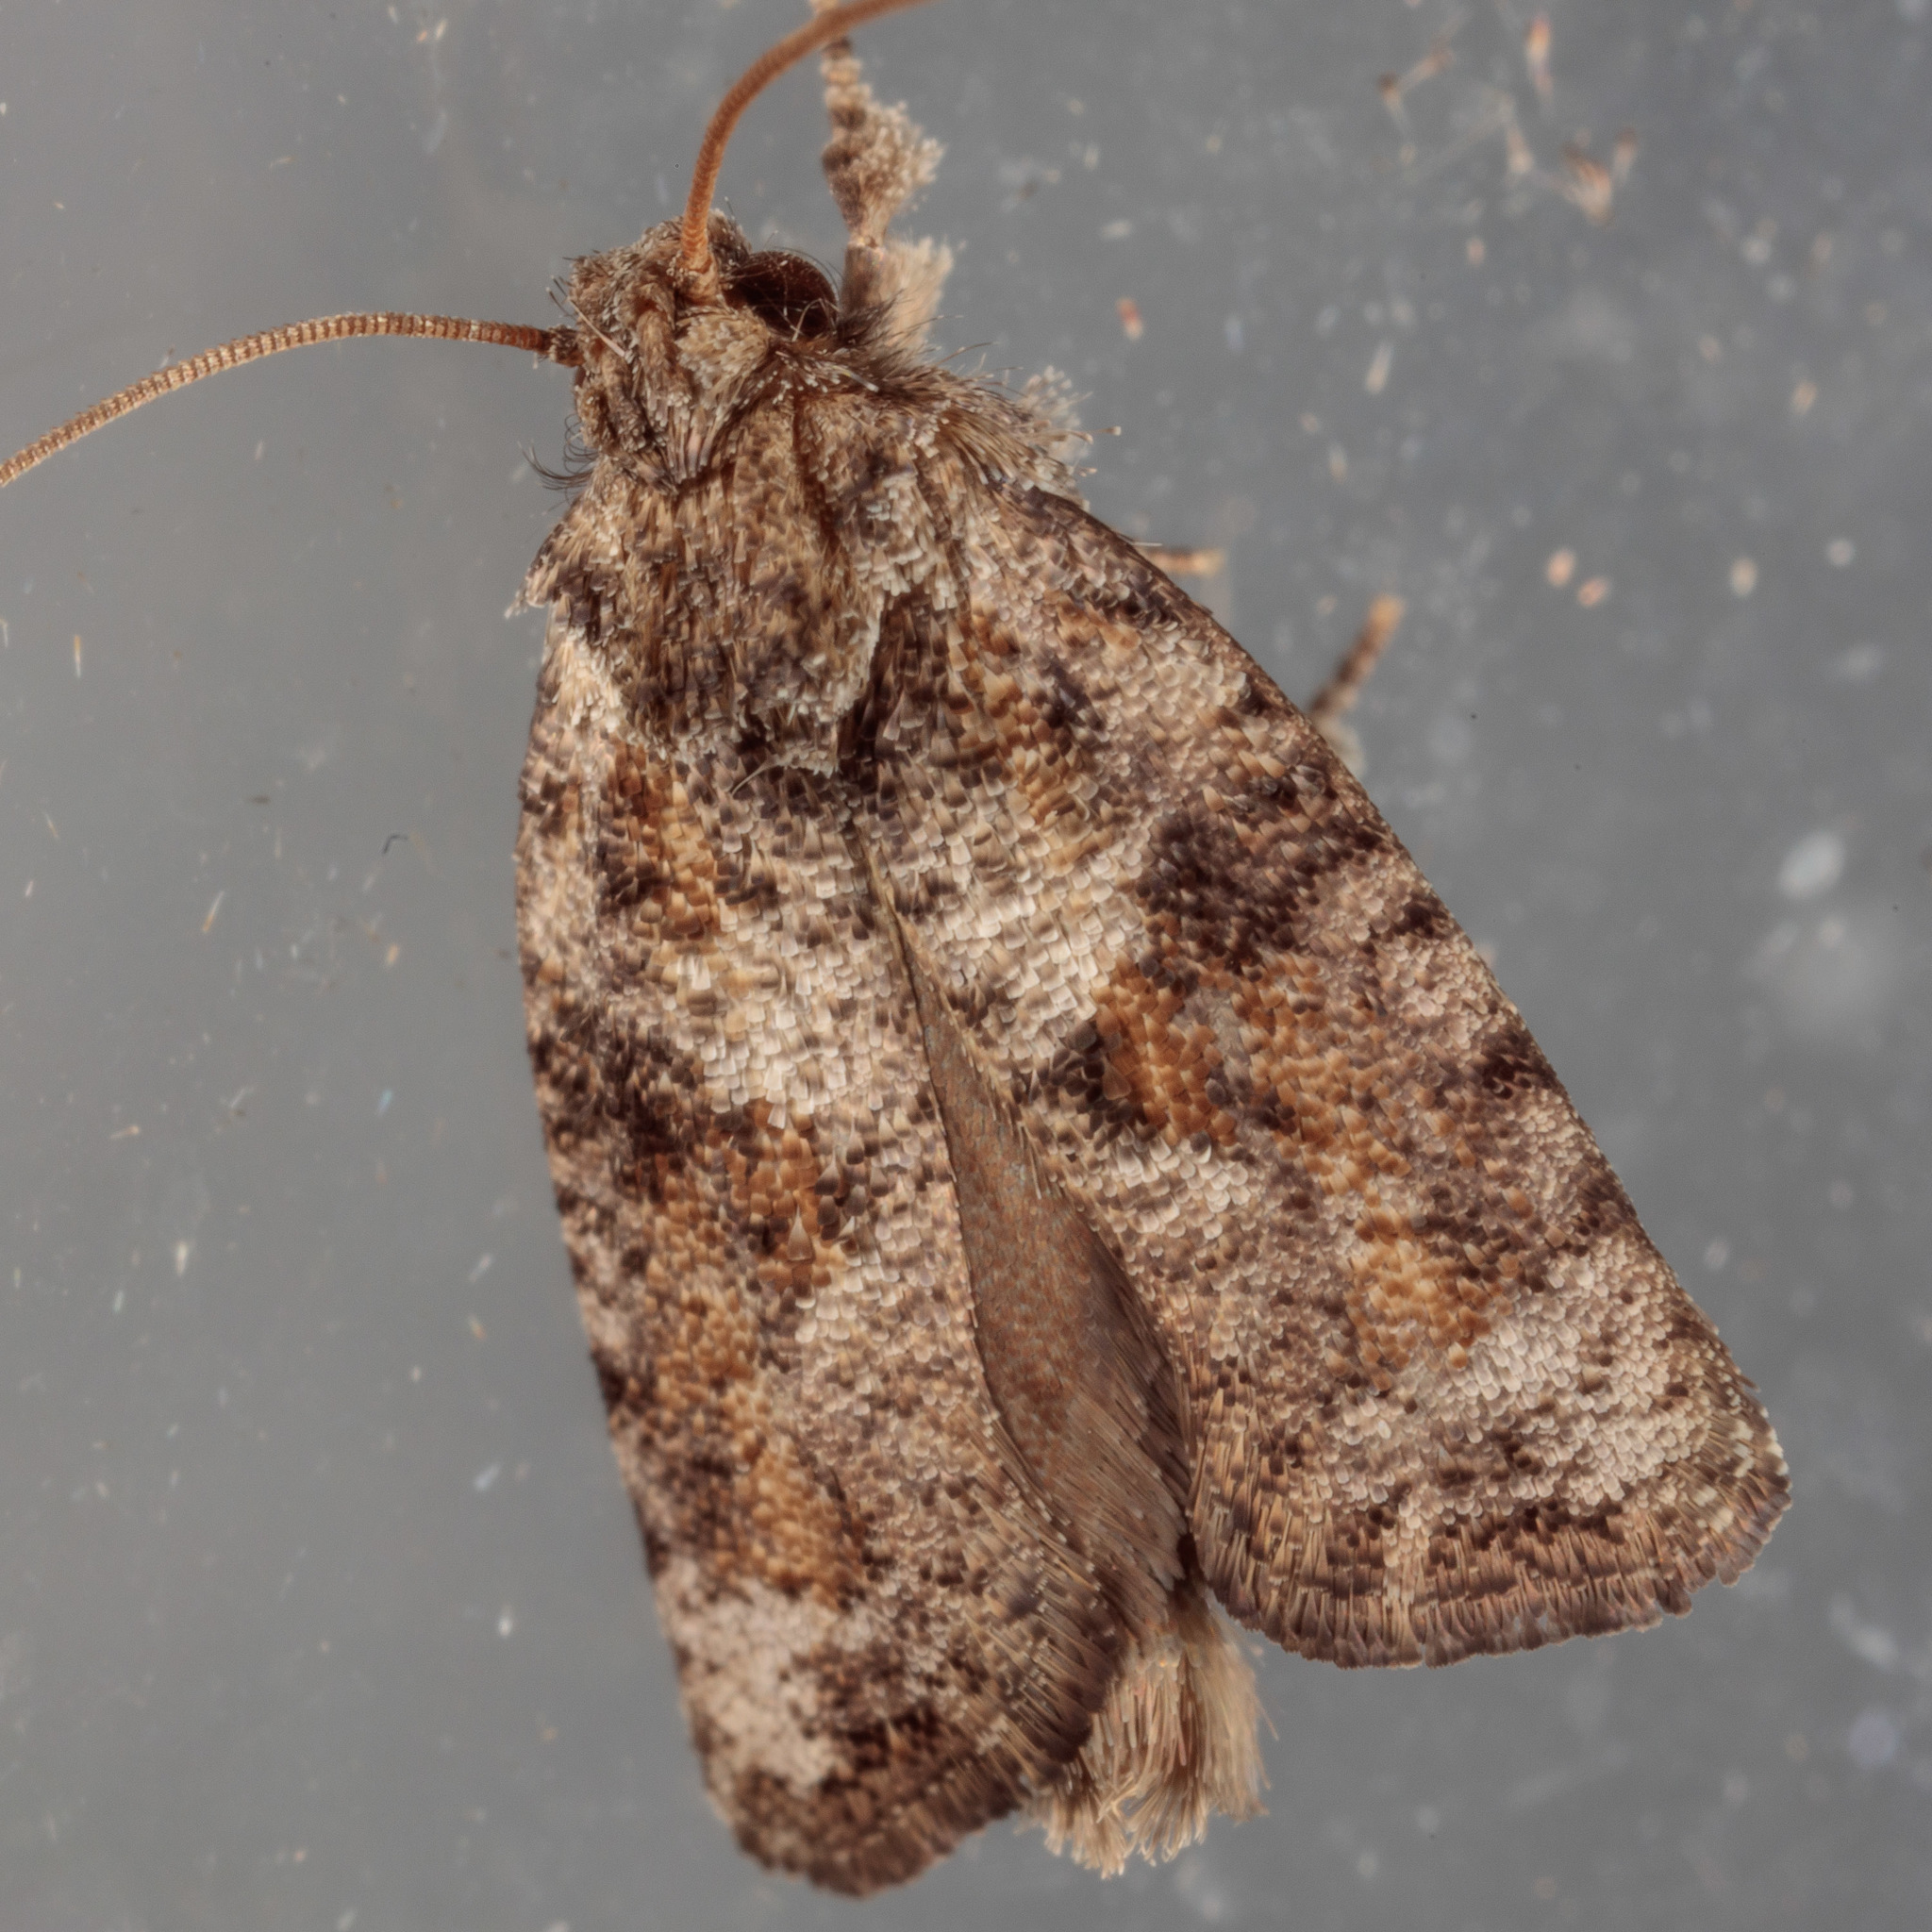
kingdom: Animalia
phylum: Arthropoda
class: Insecta
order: Lepidoptera
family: Tineidae
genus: Acrolophus
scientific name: Acrolophus piger
